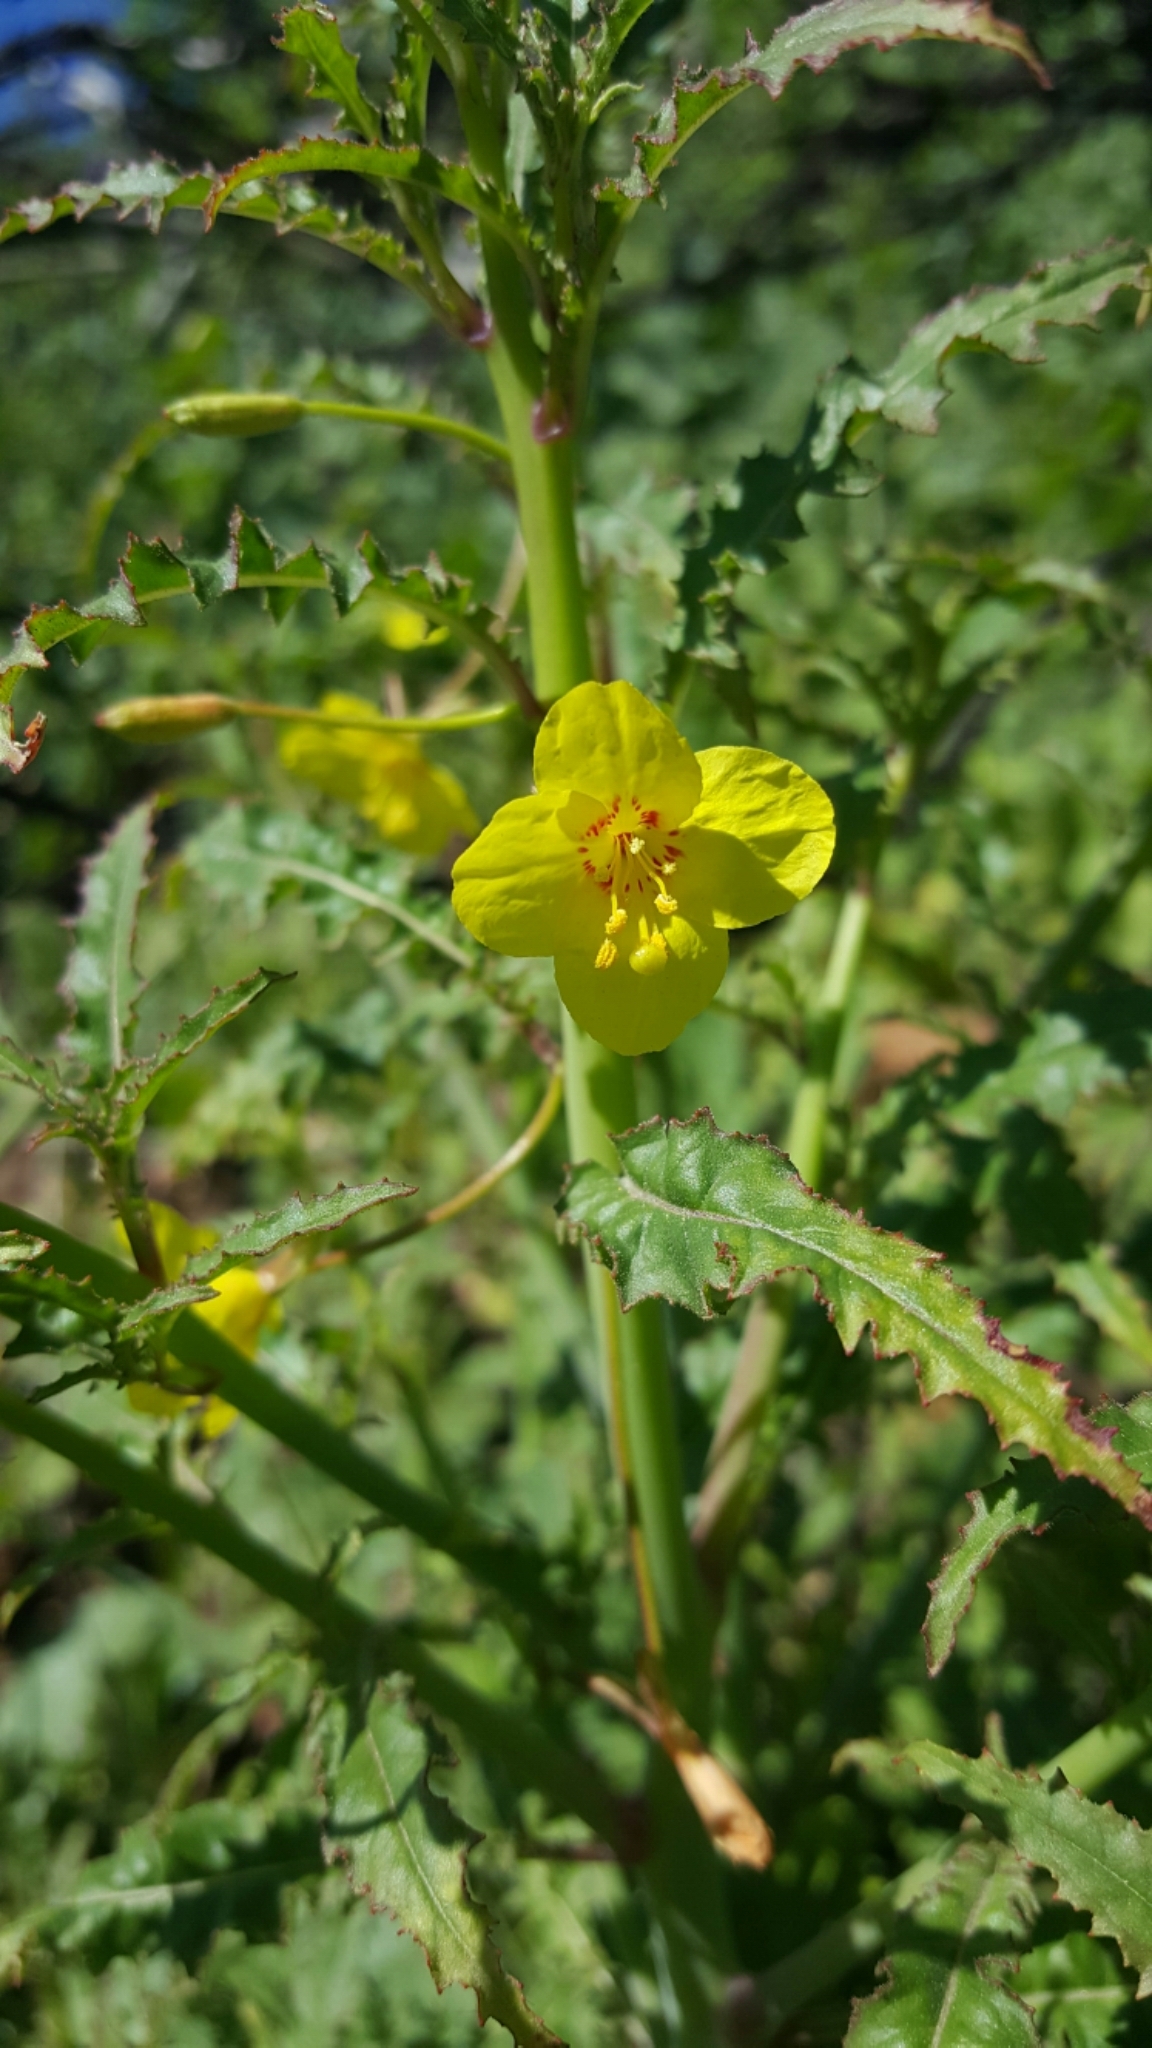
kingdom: Plantae
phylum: Tracheophyta
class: Magnoliopsida
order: Myrtales
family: Onagraceae
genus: Eulobus
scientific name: Eulobus californicus
